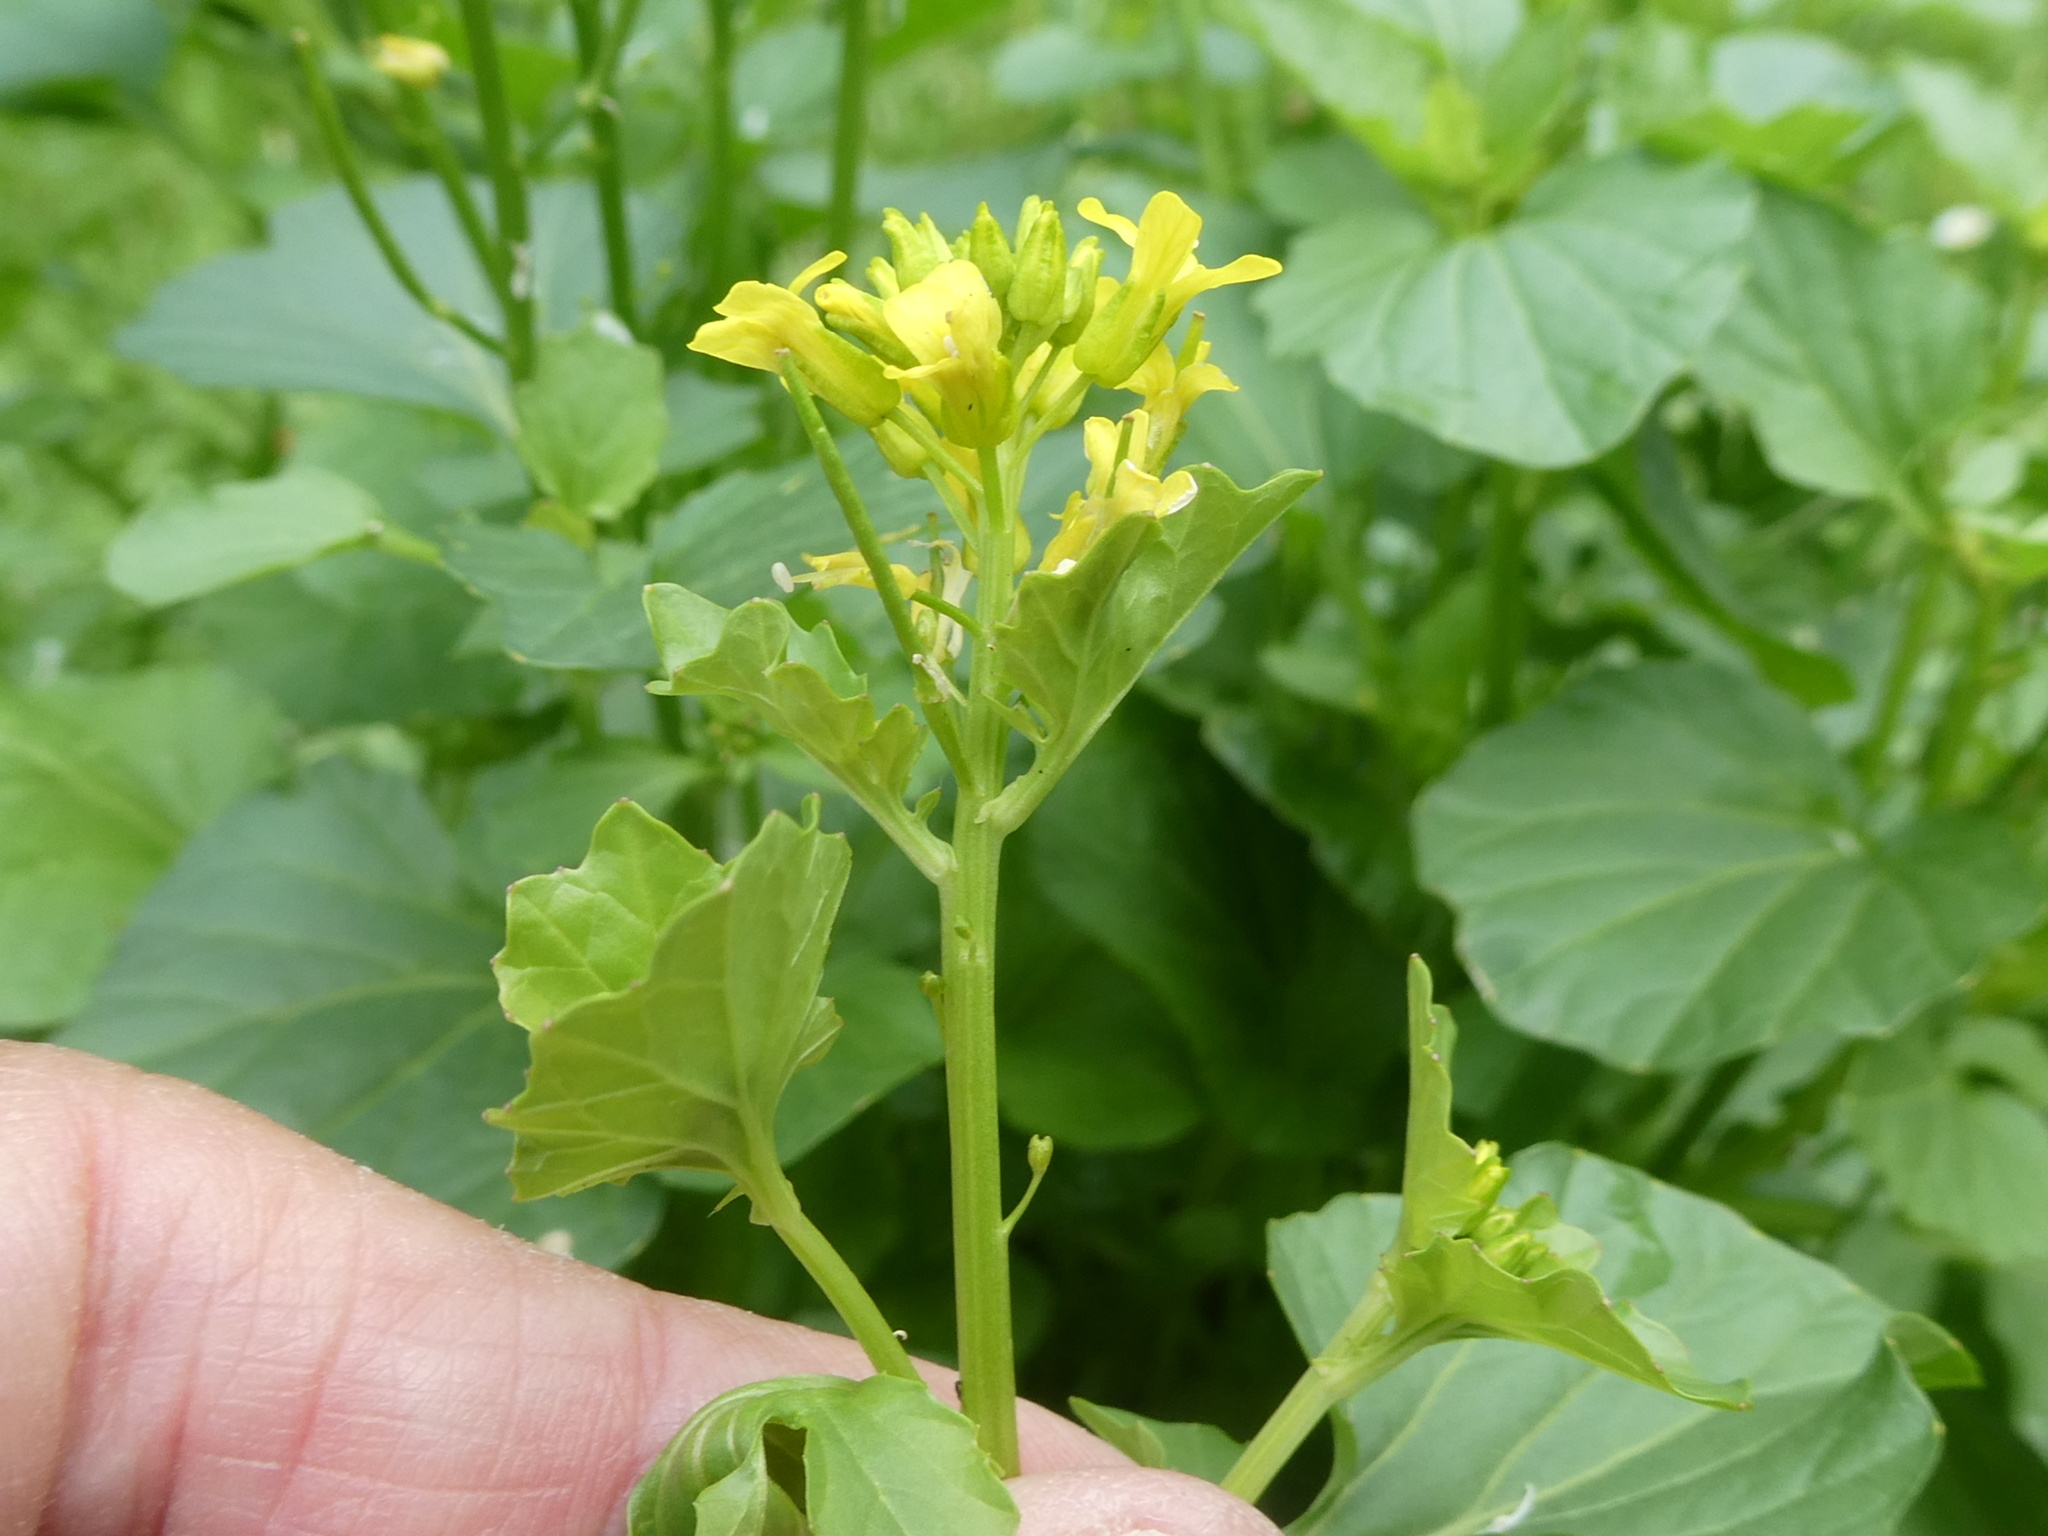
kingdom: Plantae
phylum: Tracheophyta
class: Magnoliopsida
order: Brassicales
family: Brassicaceae
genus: Barbarea
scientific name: Barbarea vulgaris
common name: Cressy-greens
